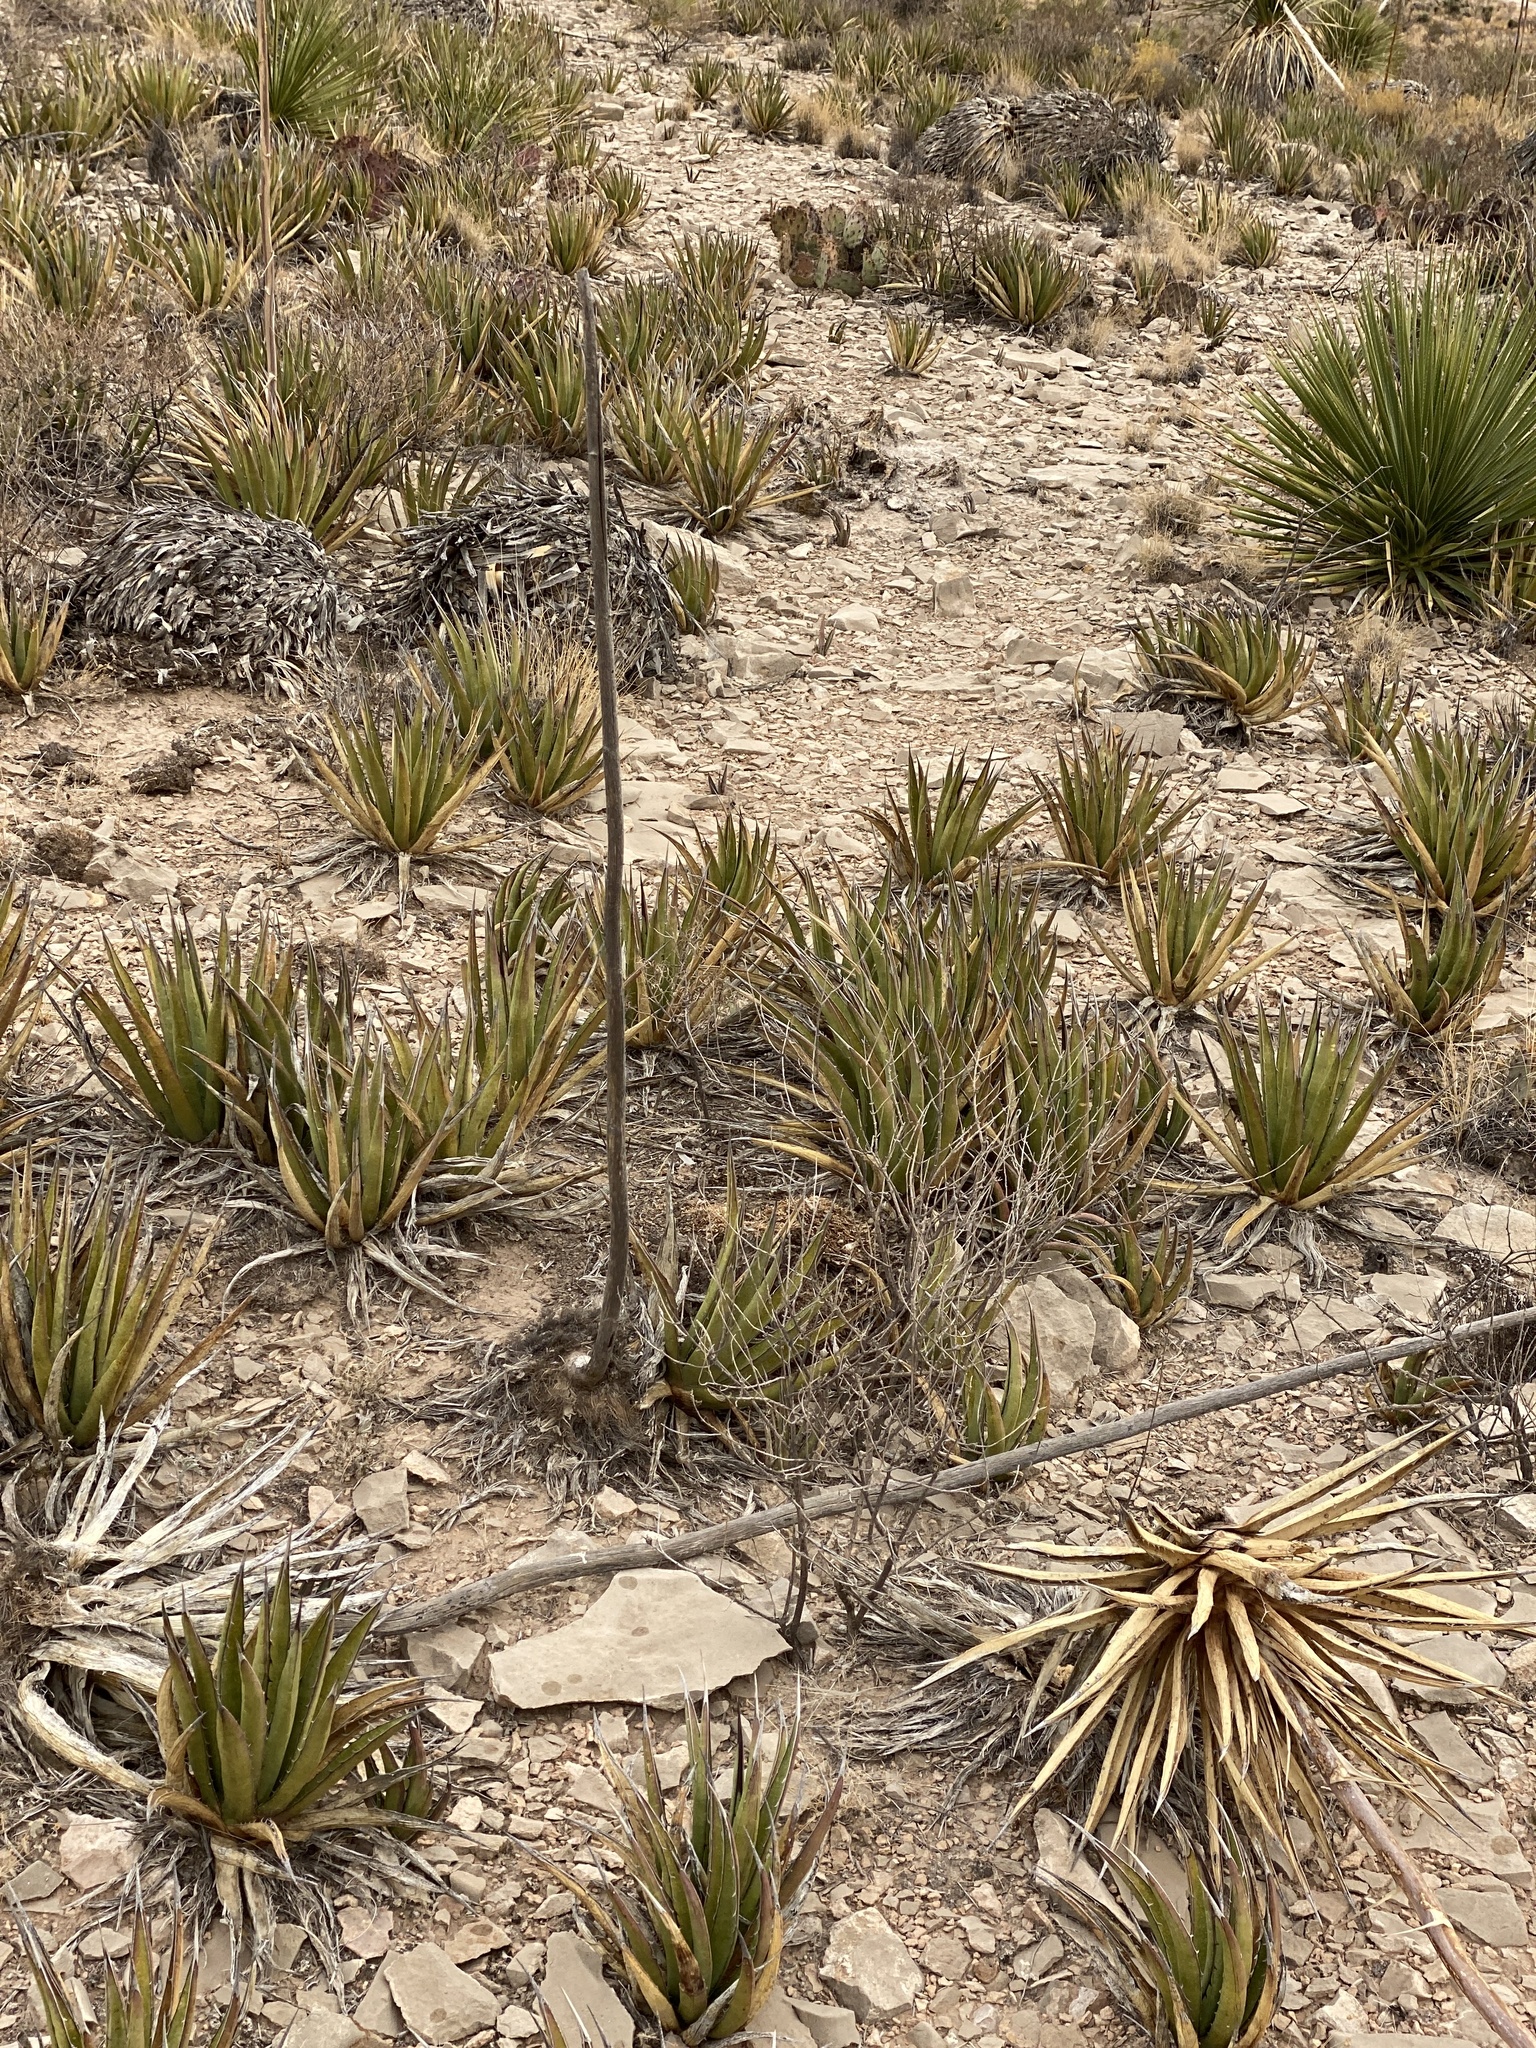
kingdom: Plantae
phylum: Tracheophyta
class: Liliopsida
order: Asparagales
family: Asparagaceae
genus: Agave
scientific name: Agave lechuguilla
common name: Lecheguilla agave
